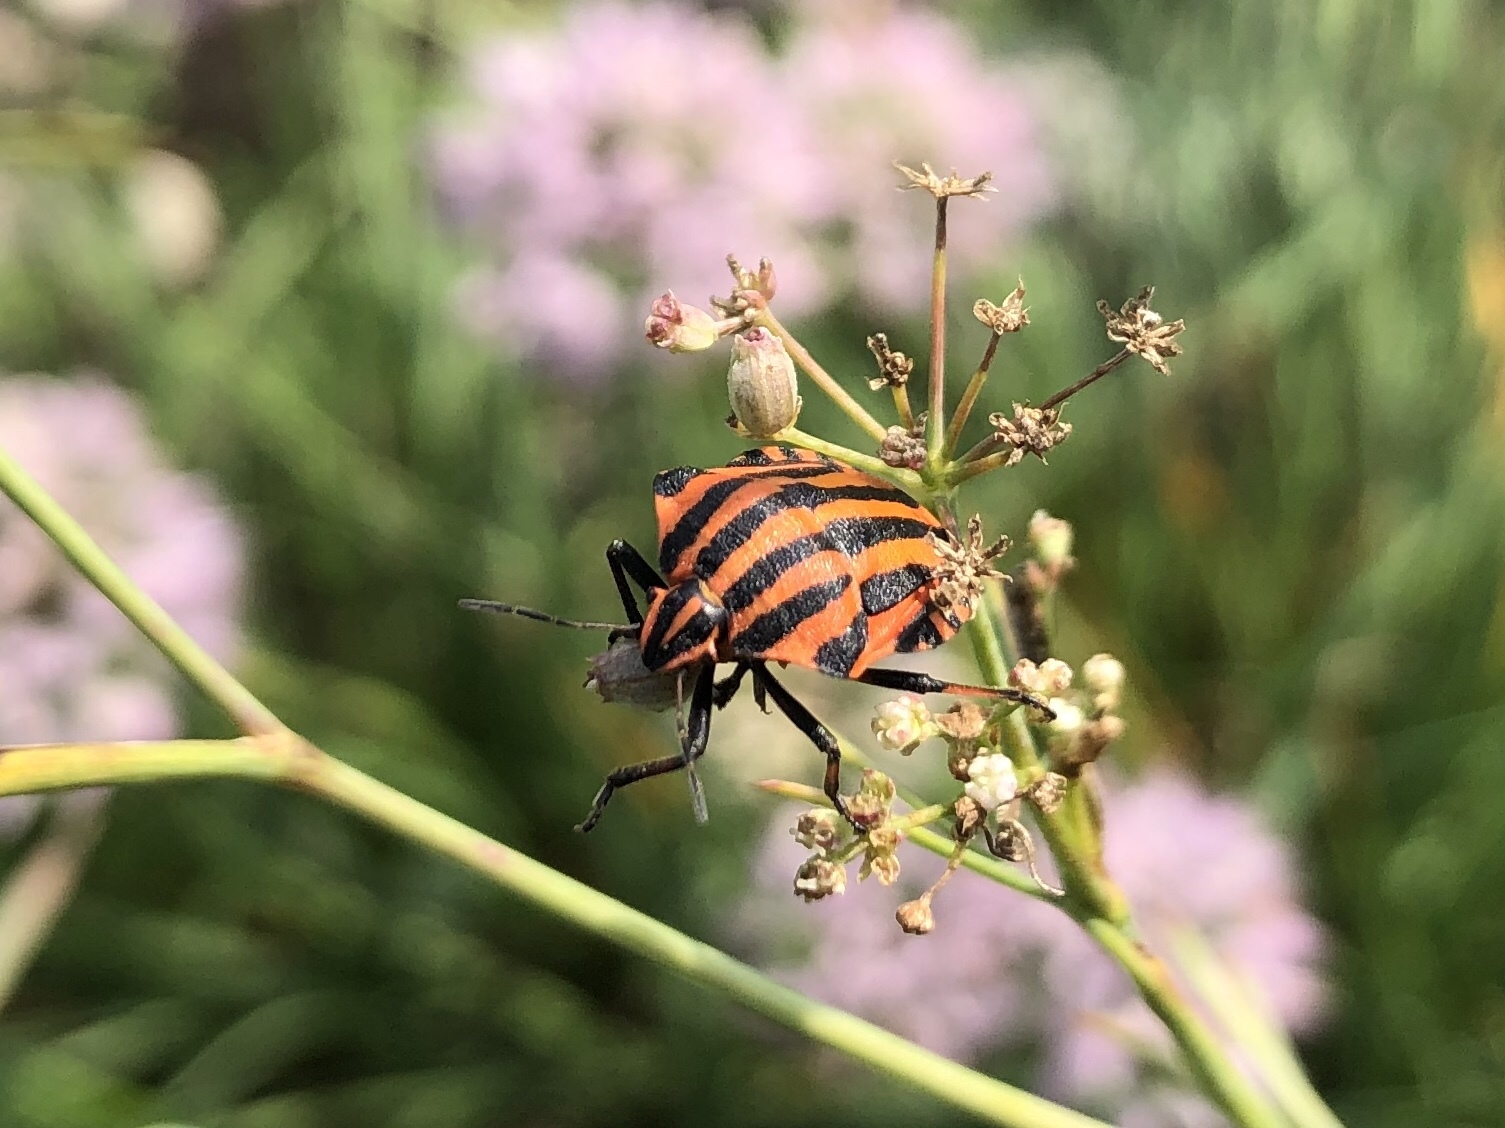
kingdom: Animalia
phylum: Arthropoda
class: Insecta
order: Hemiptera
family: Pentatomidae
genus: Graphosoma
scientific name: Graphosoma italicum
